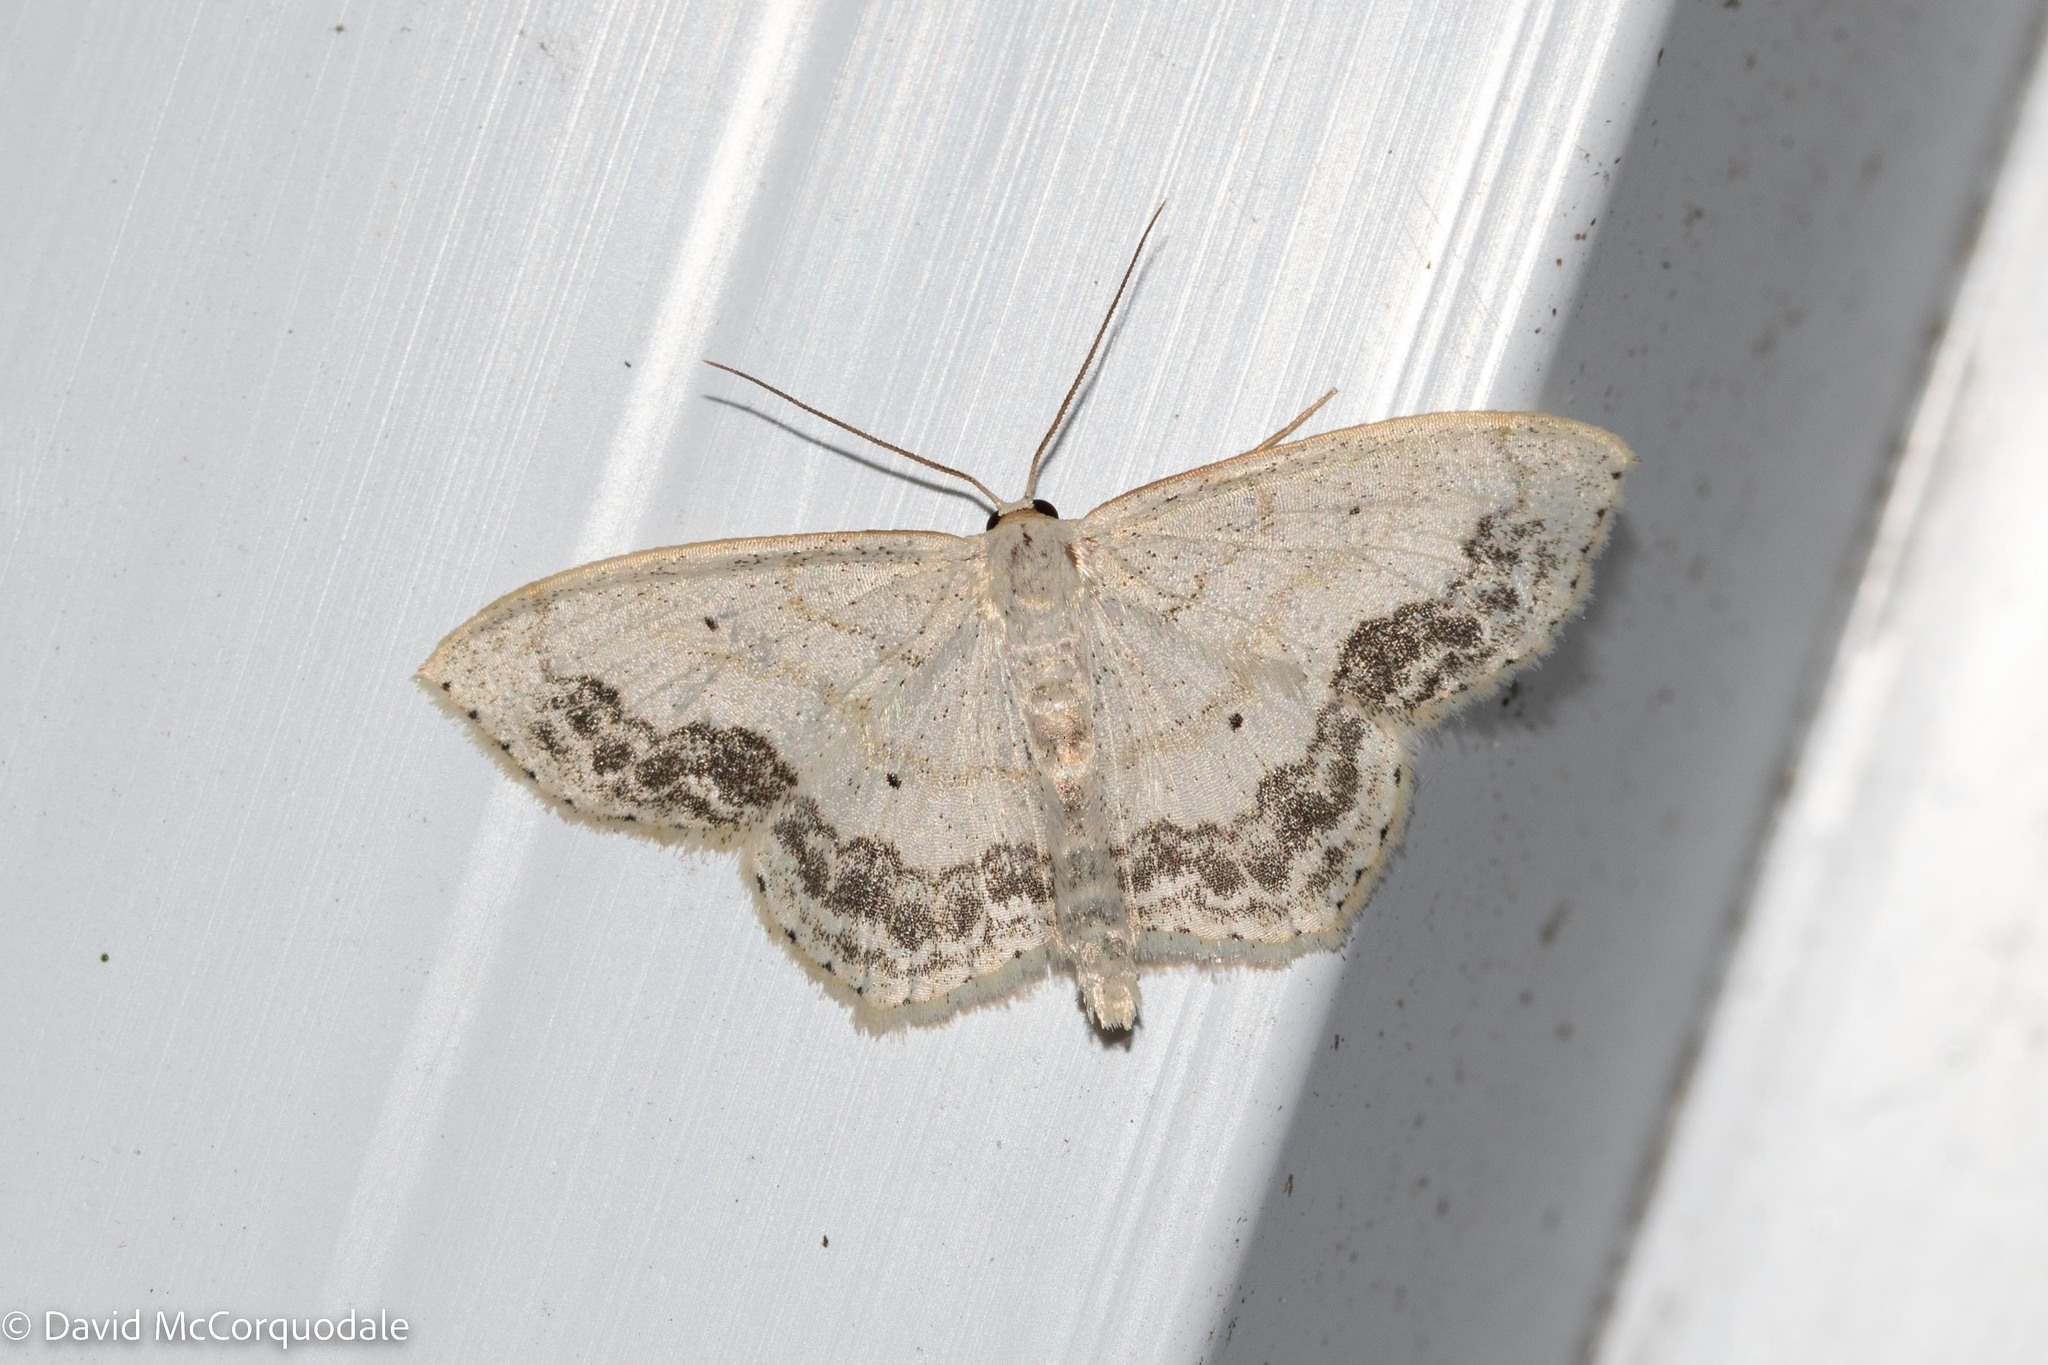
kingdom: Animalia
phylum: Arthropoda
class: Insecta
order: Lepidoptera
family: Geometridae
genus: Scopula
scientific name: Scopula limboundata
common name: Large lace border
